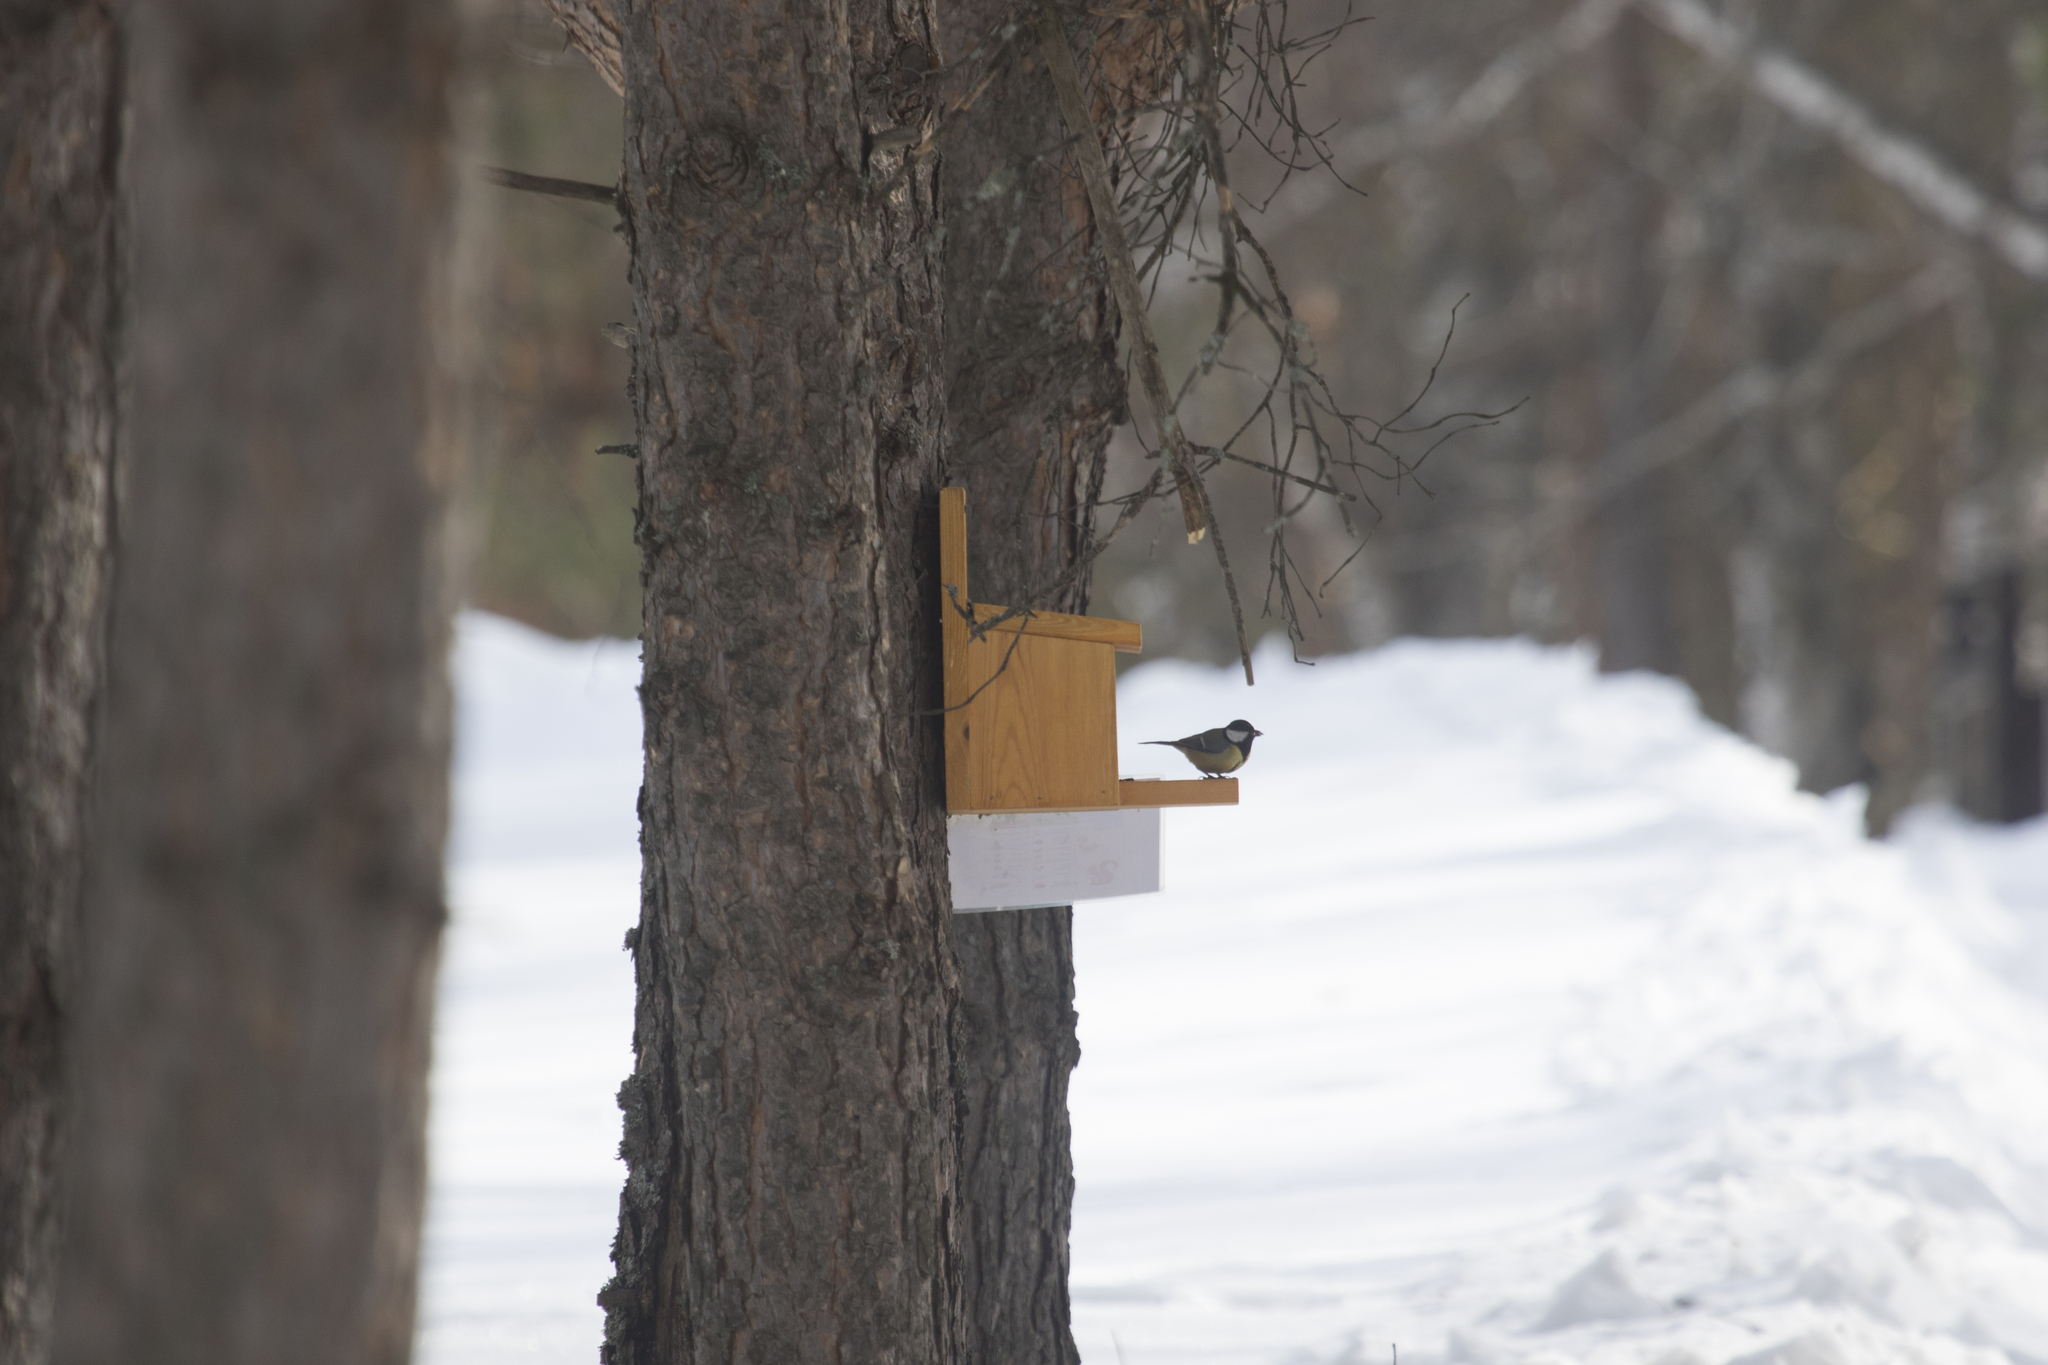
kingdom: Animalia
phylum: Chordata
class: Aves
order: Passeriformes
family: Paridae
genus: Parus
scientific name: Parus major
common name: Great tit
